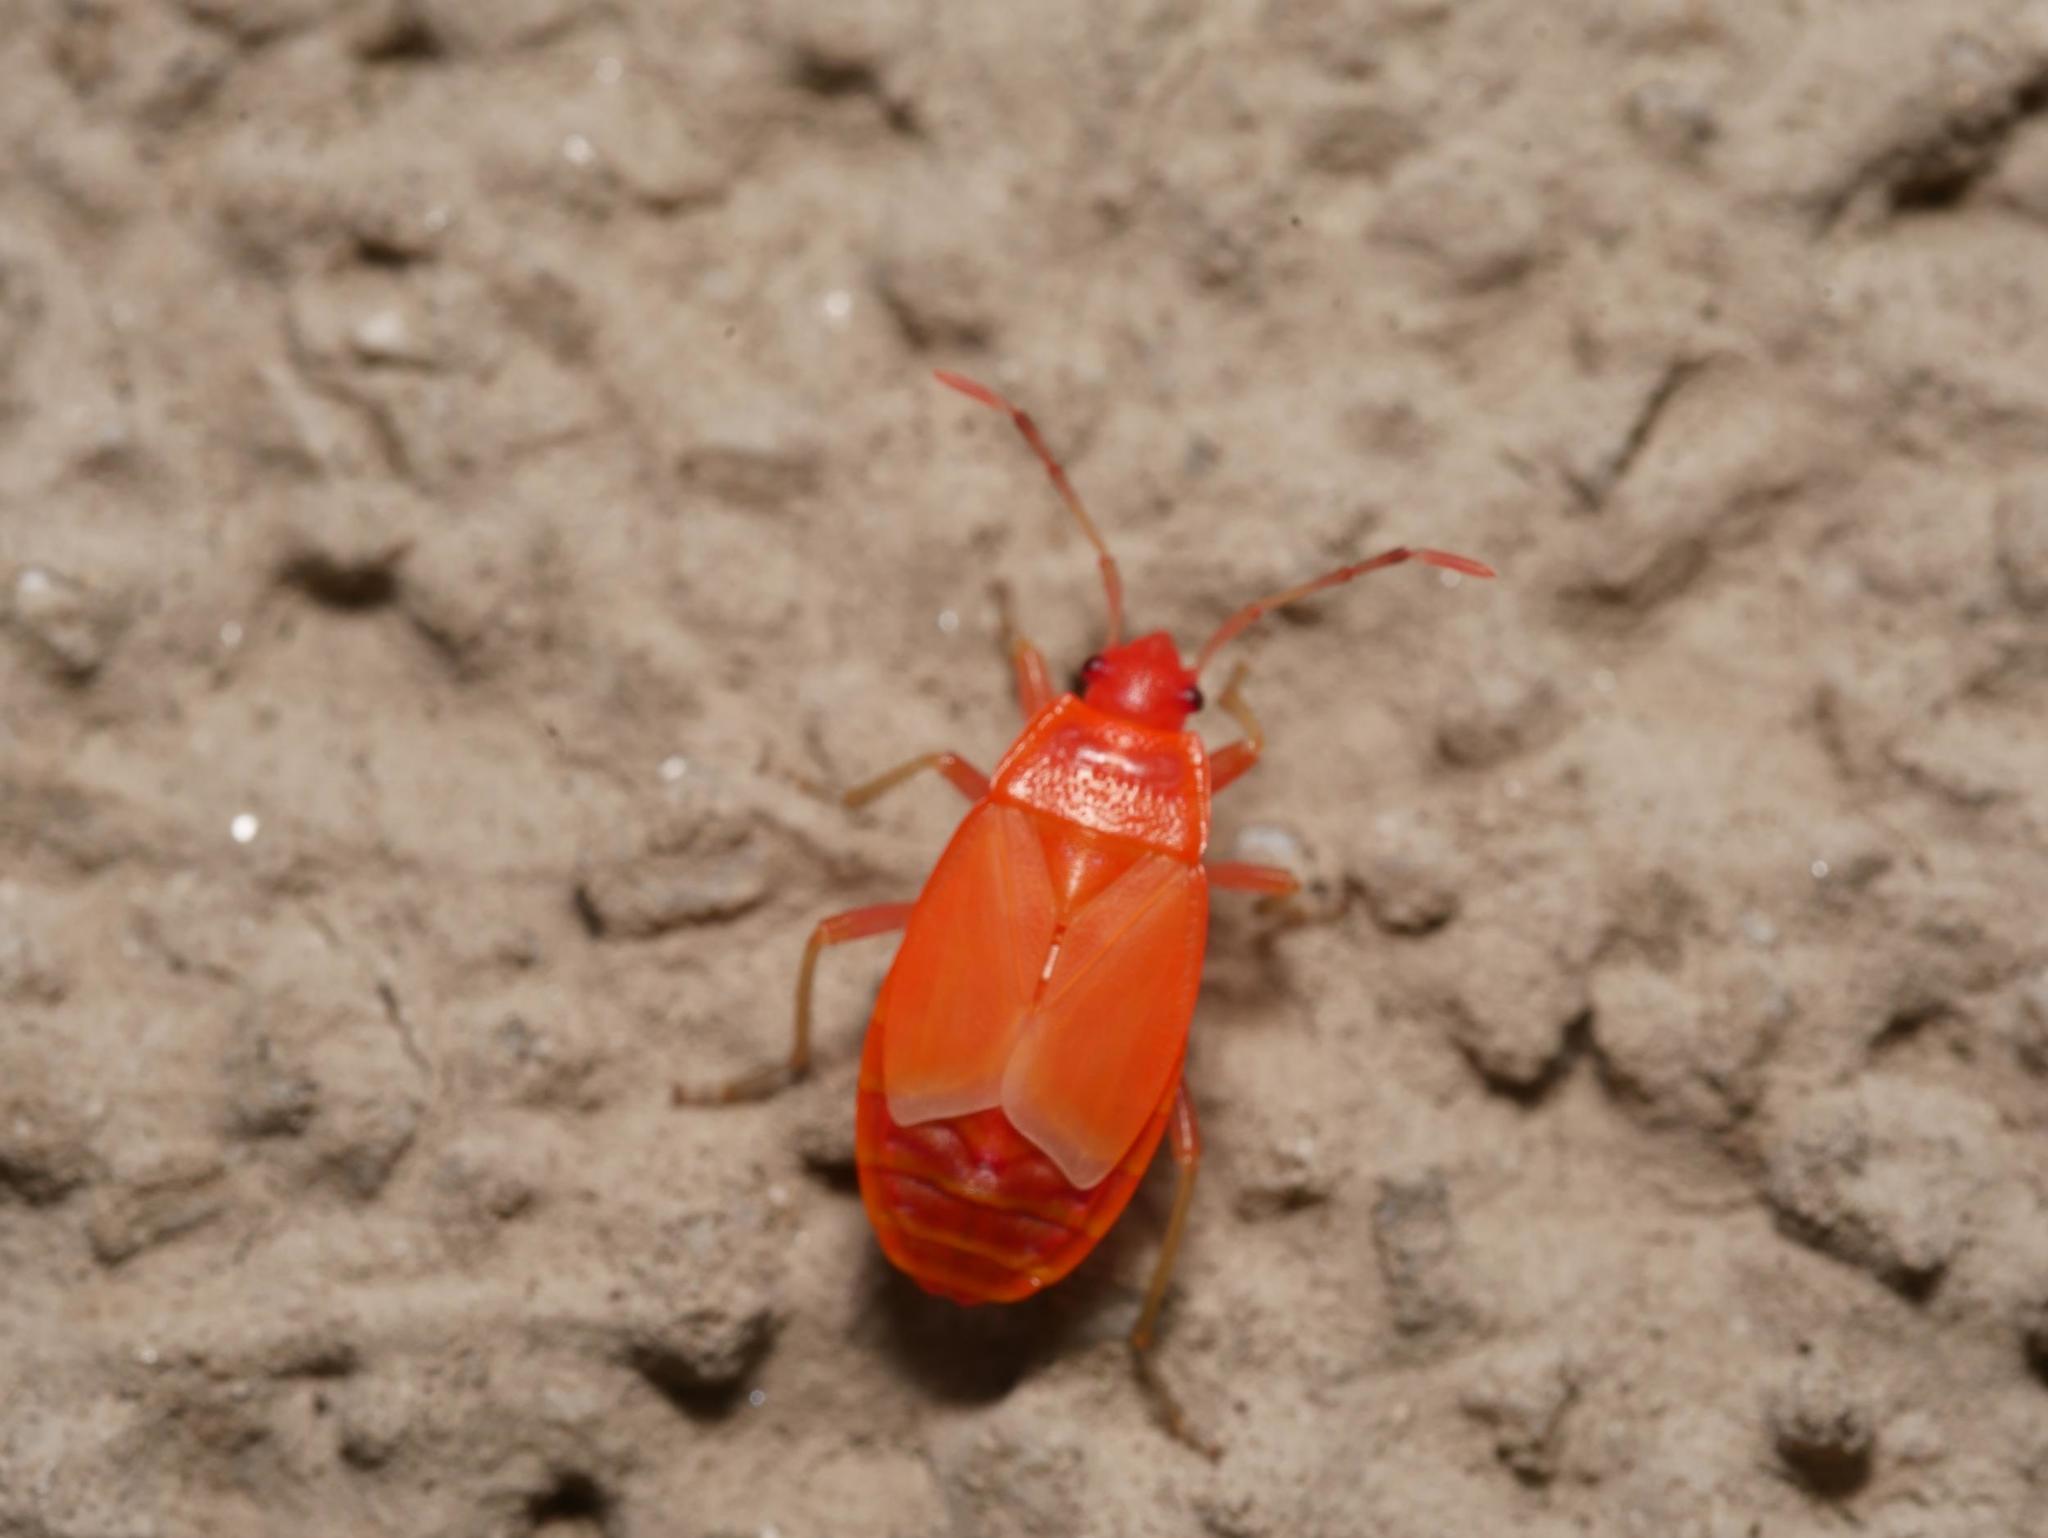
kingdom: Animalia
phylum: Arthropoda
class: Insecta
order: Hemiptera
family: Pyrrhocoridae
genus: Pyrrhocoris
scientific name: Pyrrhocoris apterus
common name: Firebug
